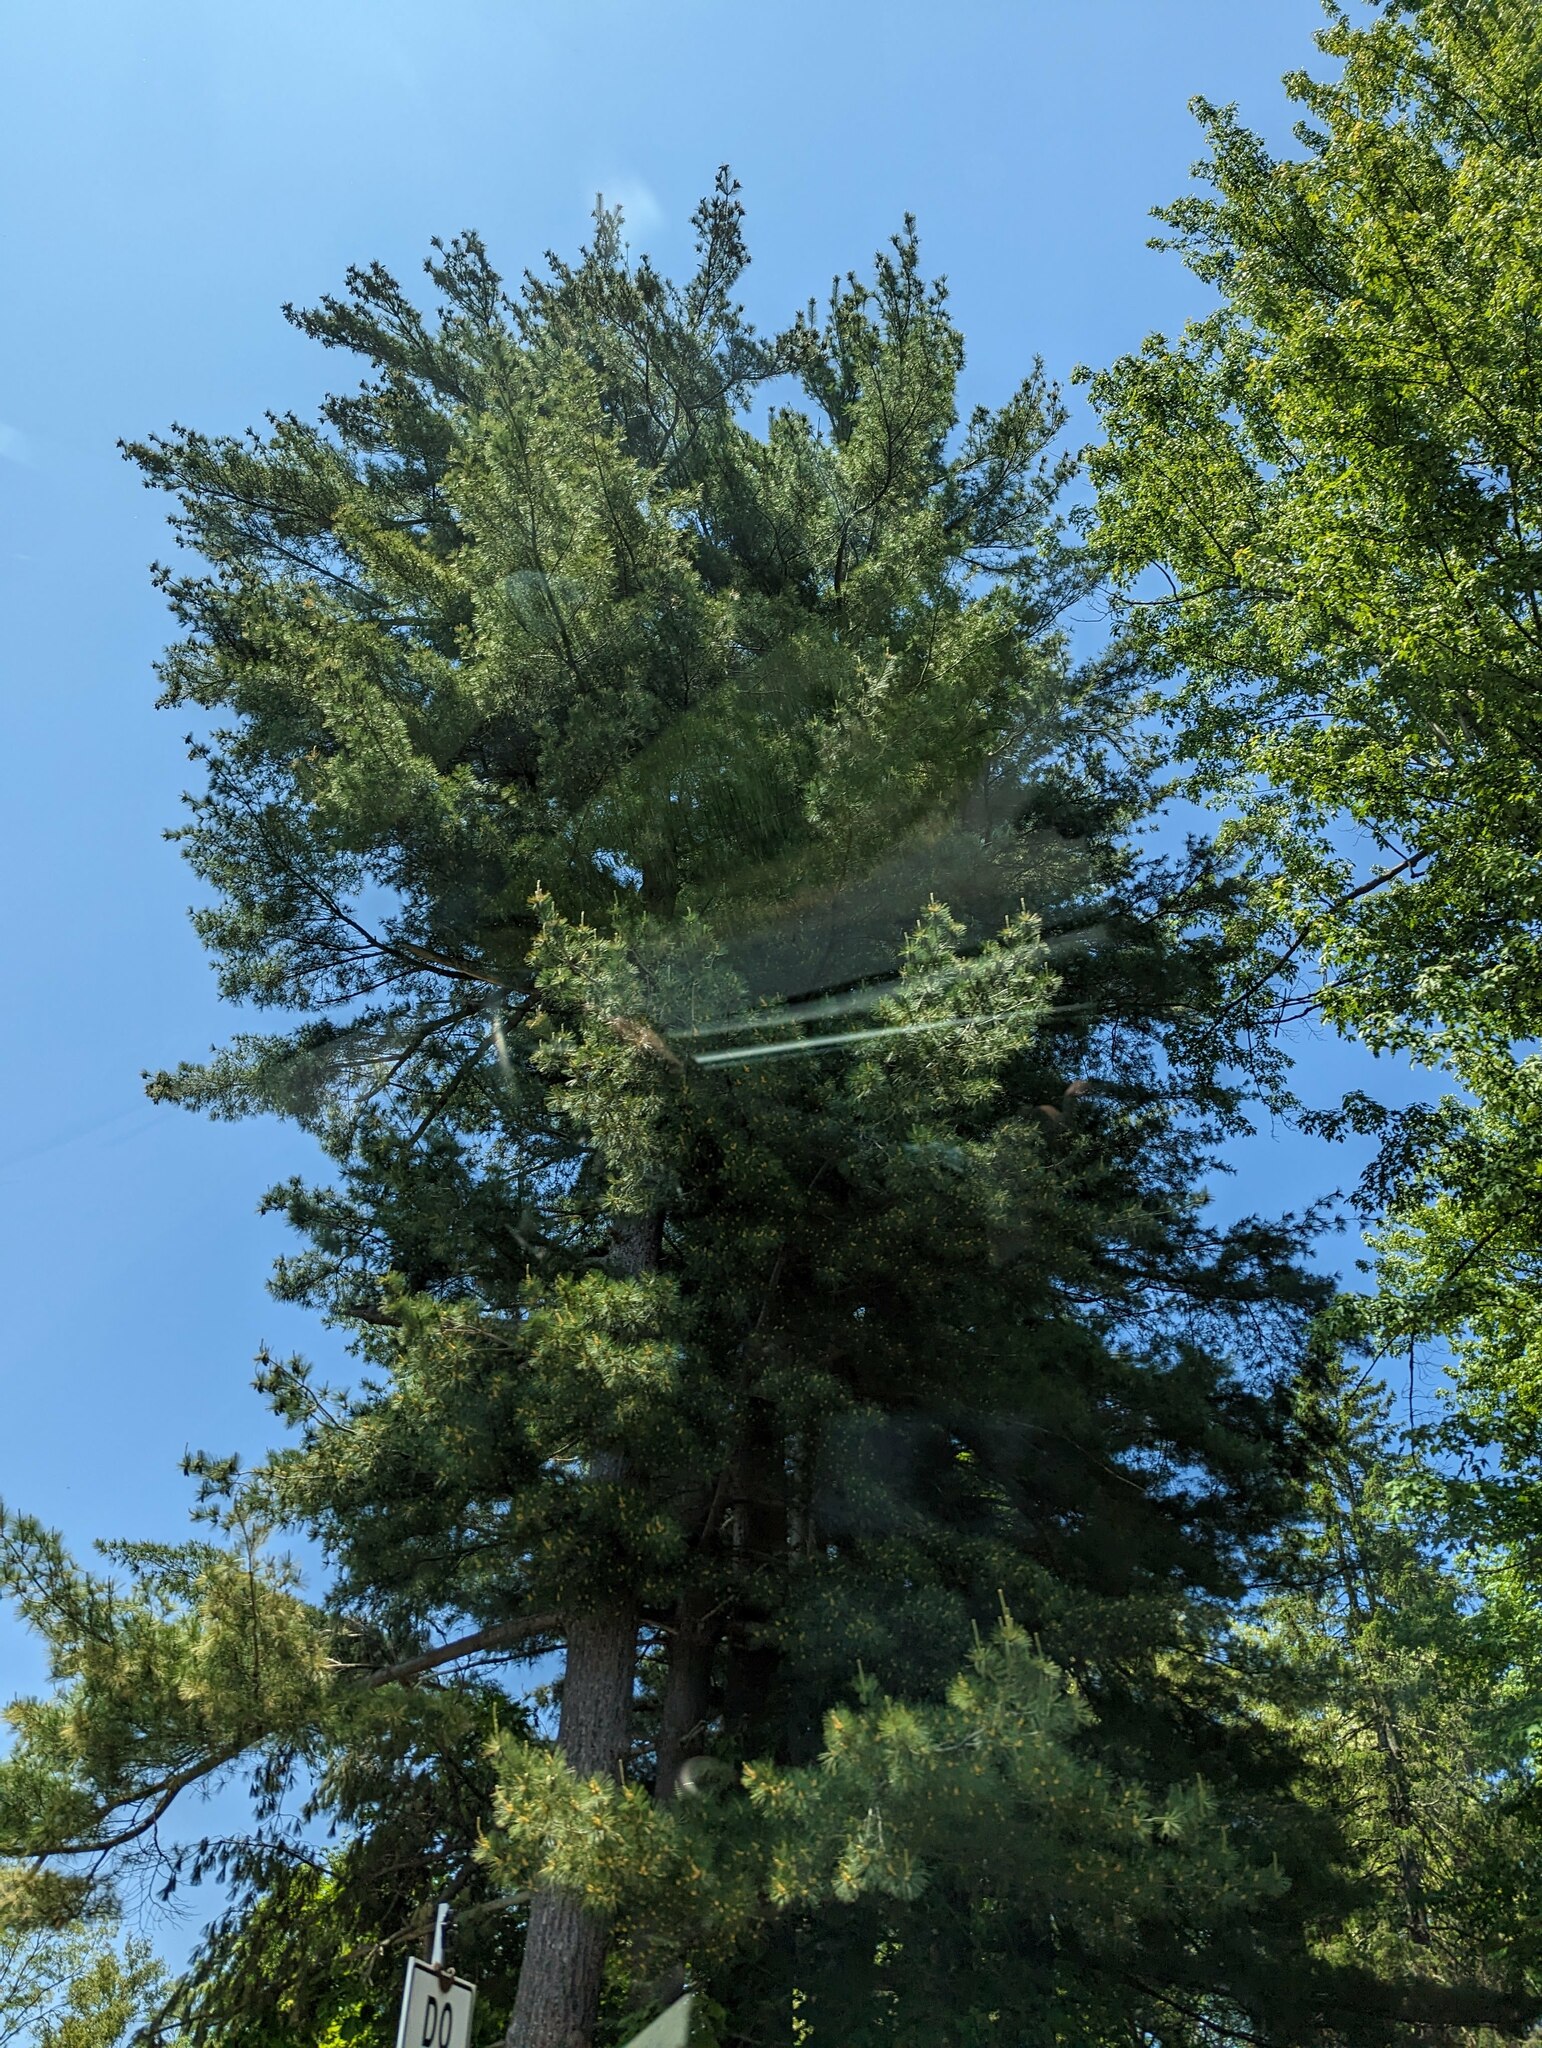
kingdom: Plantae
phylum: Tracheophyta
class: Pinopsida
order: Pinales
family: Pinaceae
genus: Pinus
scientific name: Pinus strobus
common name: Weymouth pine
